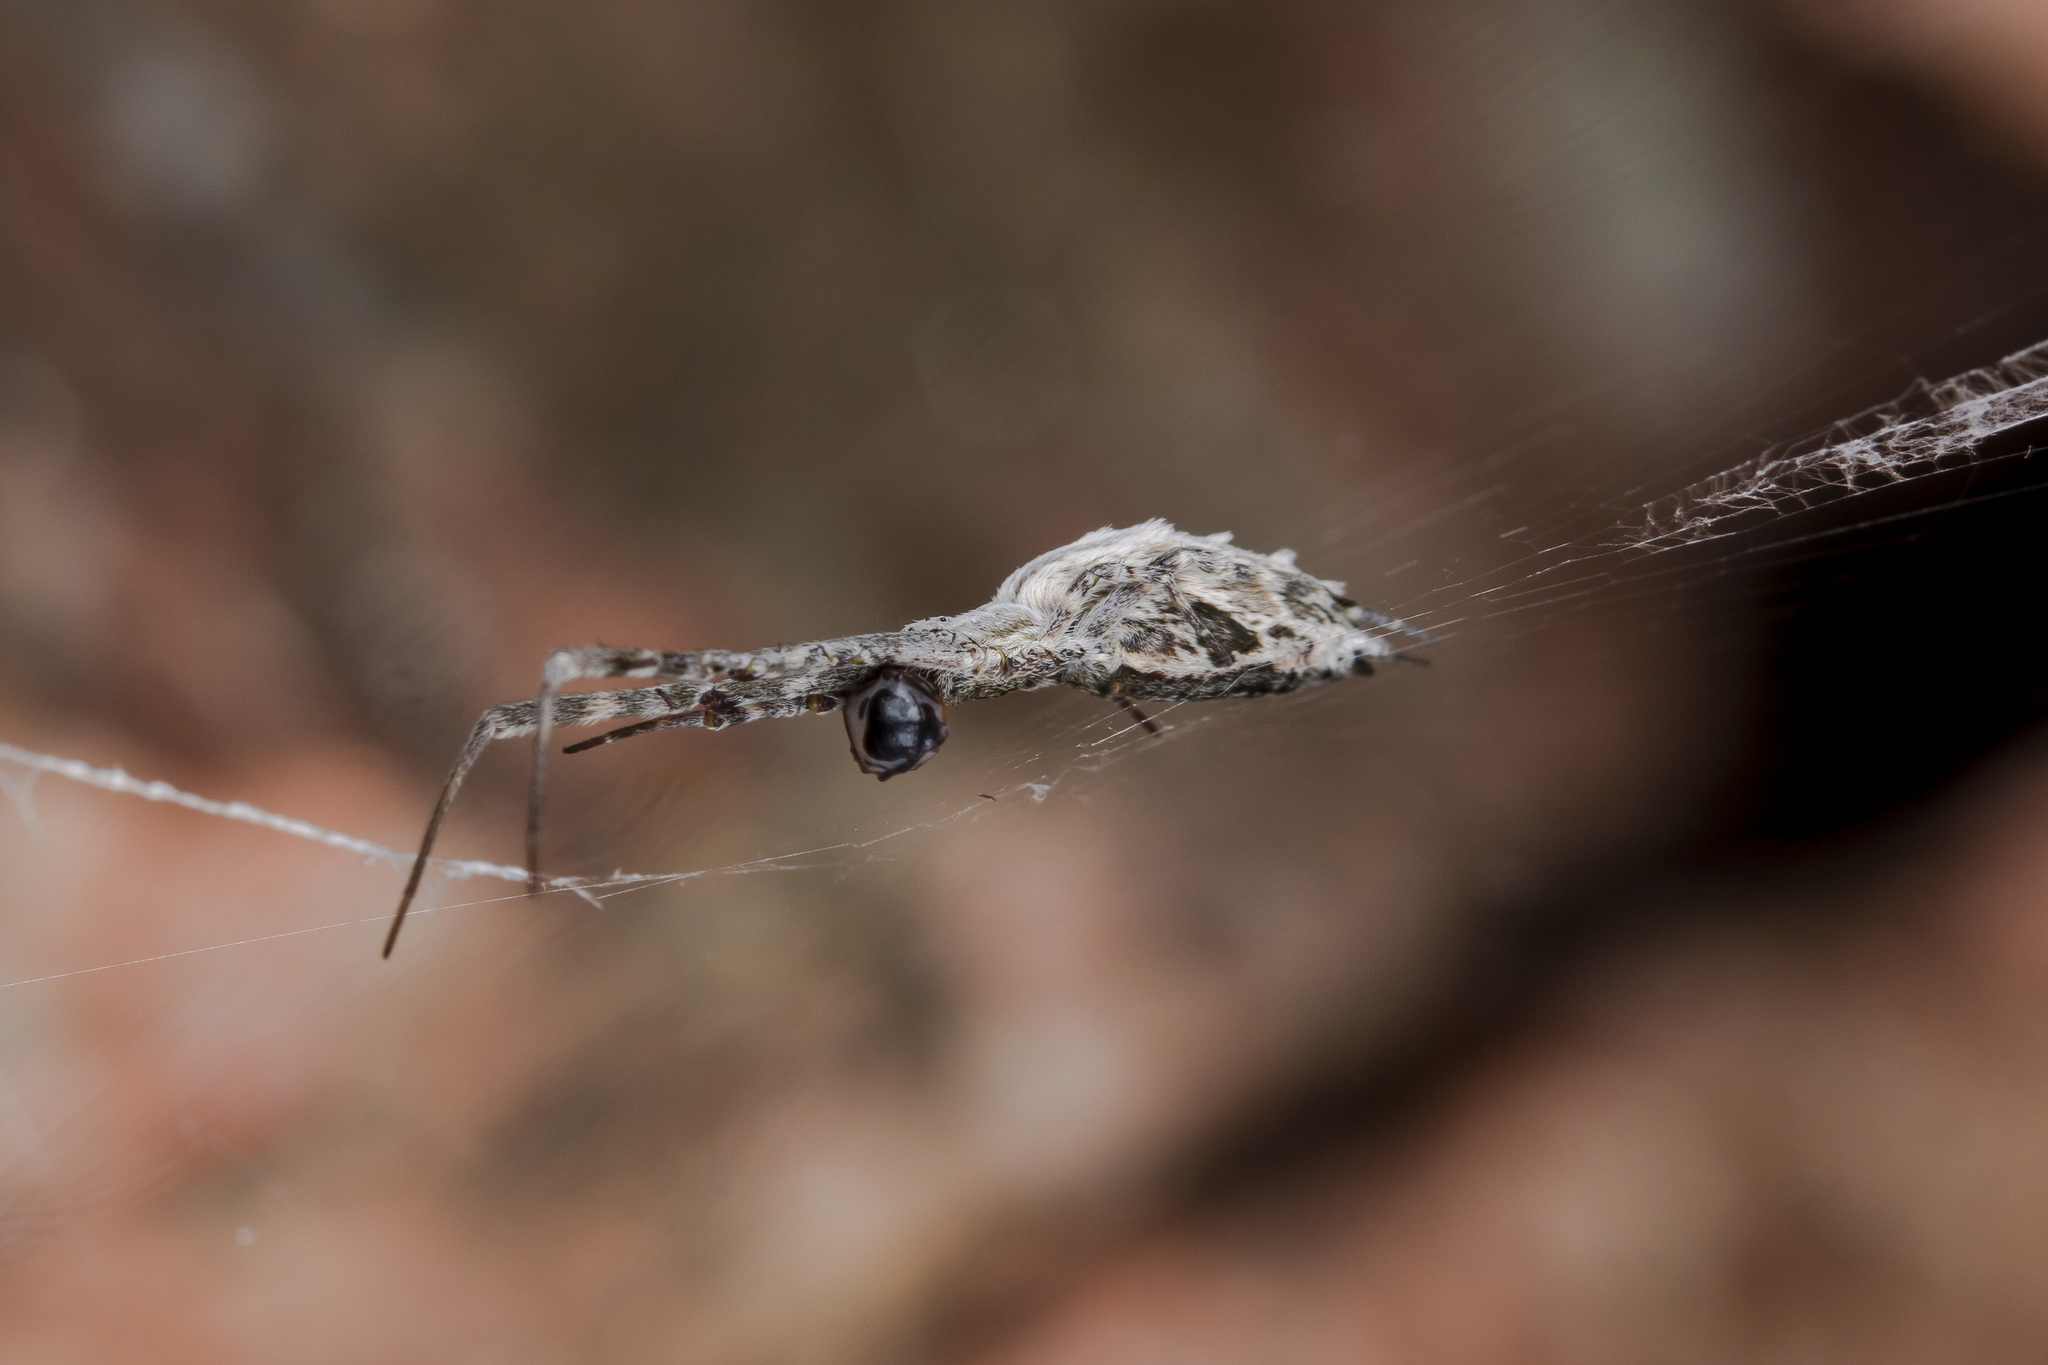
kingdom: Animalia
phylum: Arthropoda
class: Arachnida
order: Araneae
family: Uloboridae
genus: Uloborus
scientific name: Uloborus walckenaerius
